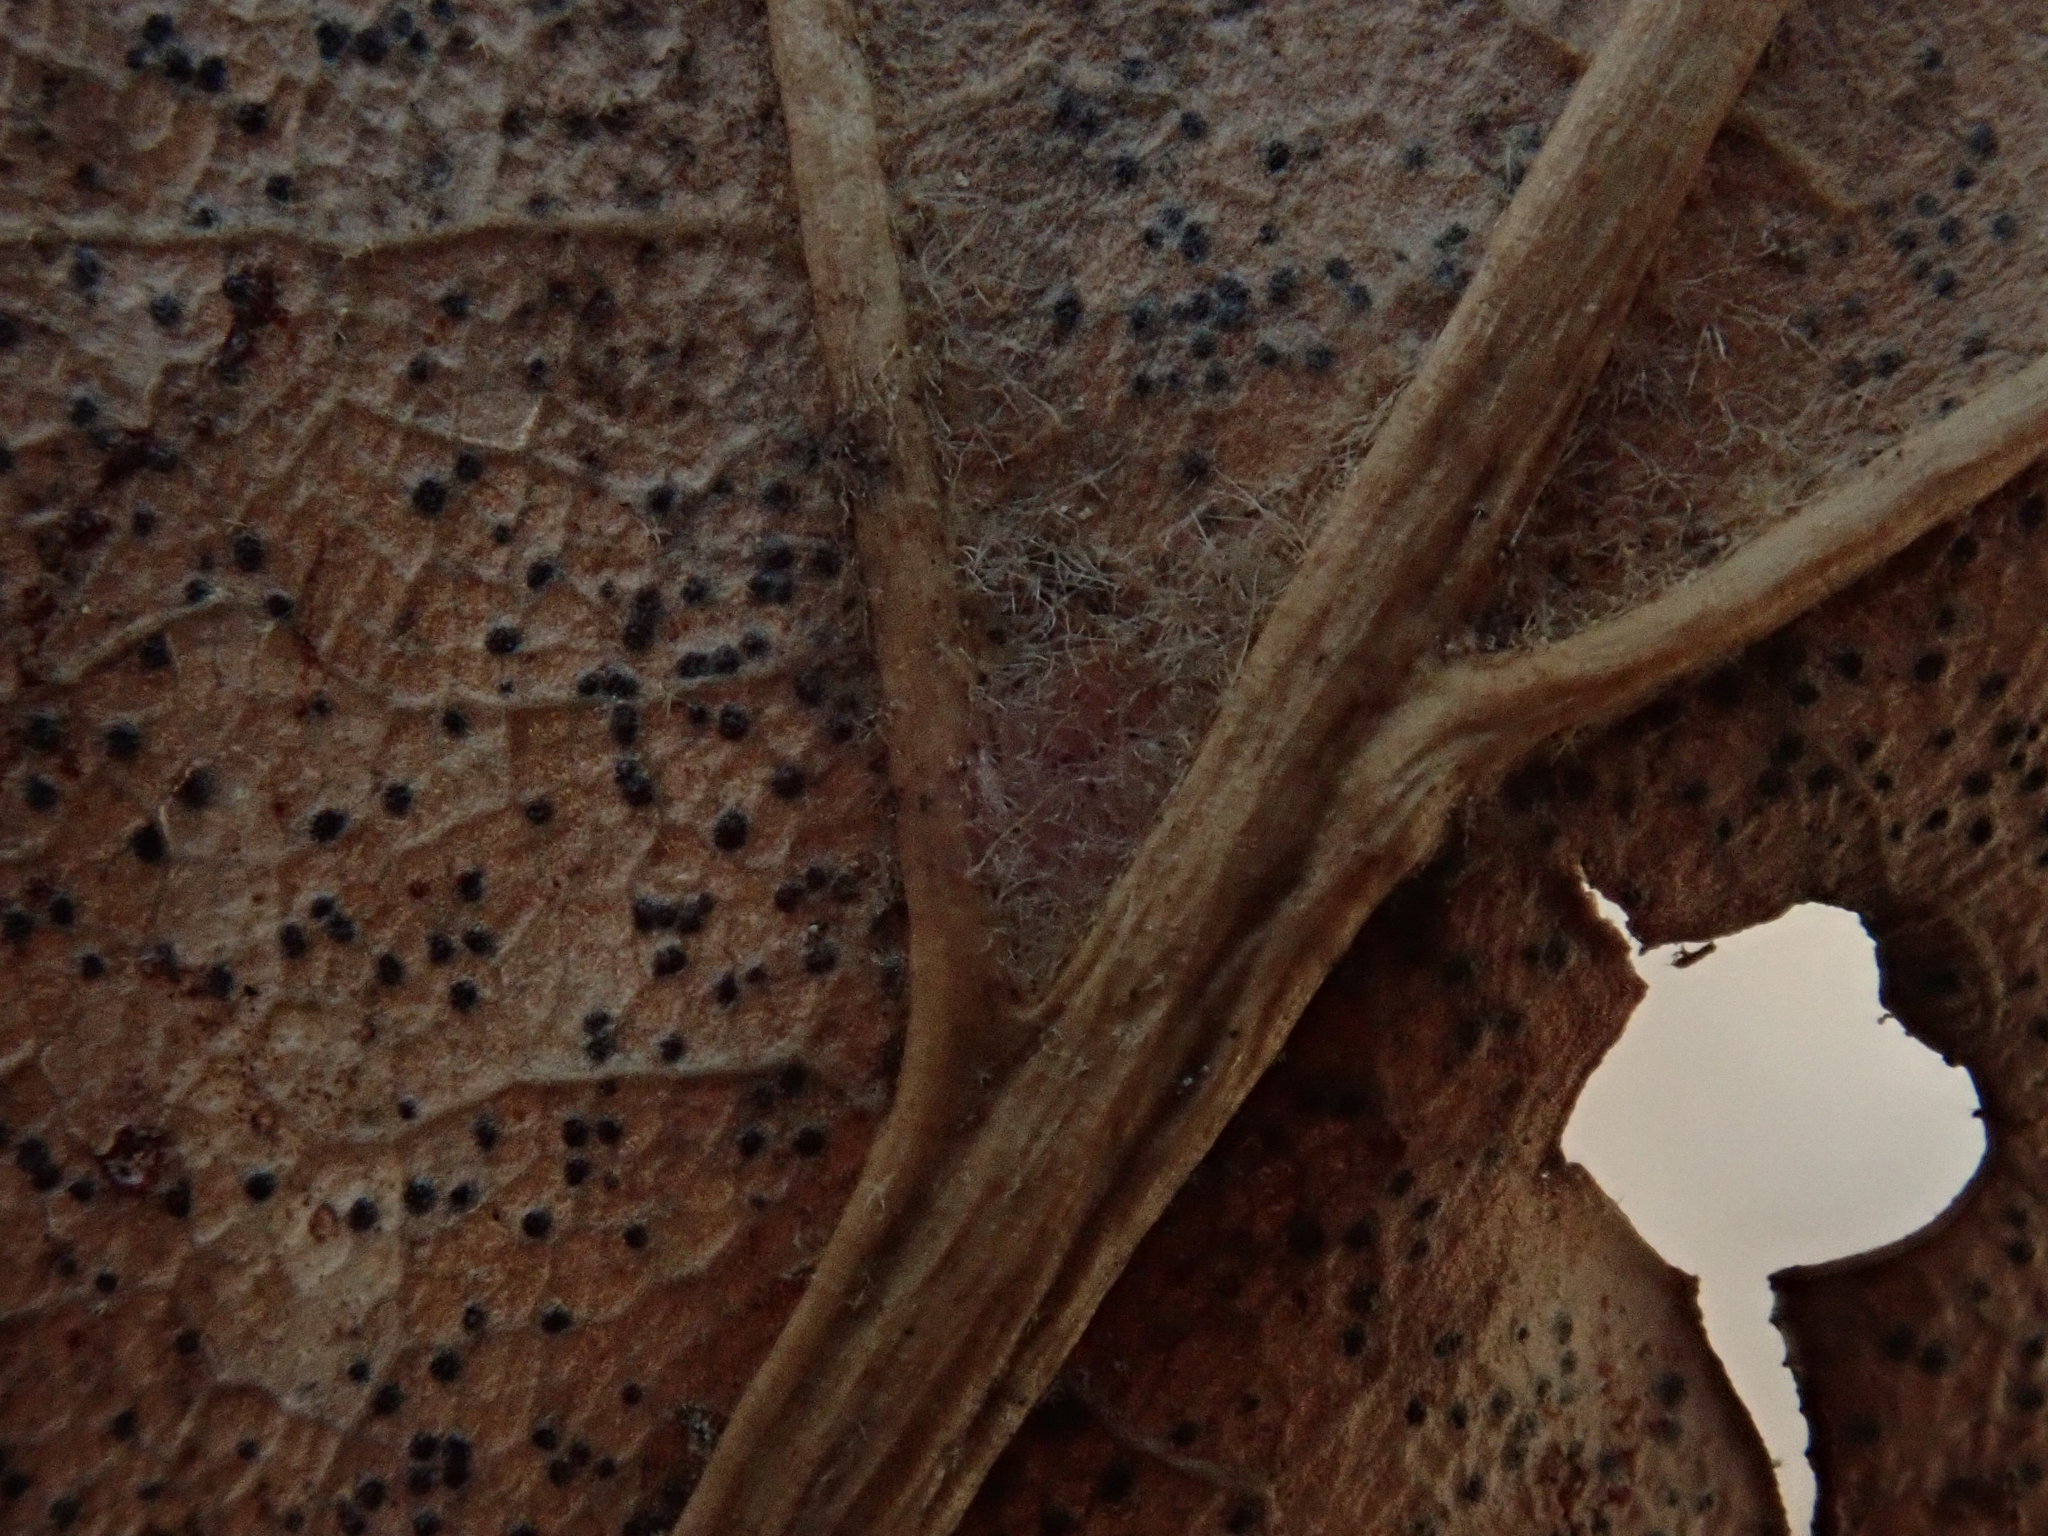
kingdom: Plantae
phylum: Tracheophyta
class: Magnoliopsida
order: Fagales
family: Fagaceae
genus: Quercus
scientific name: Quercus velutina
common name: Black oak
